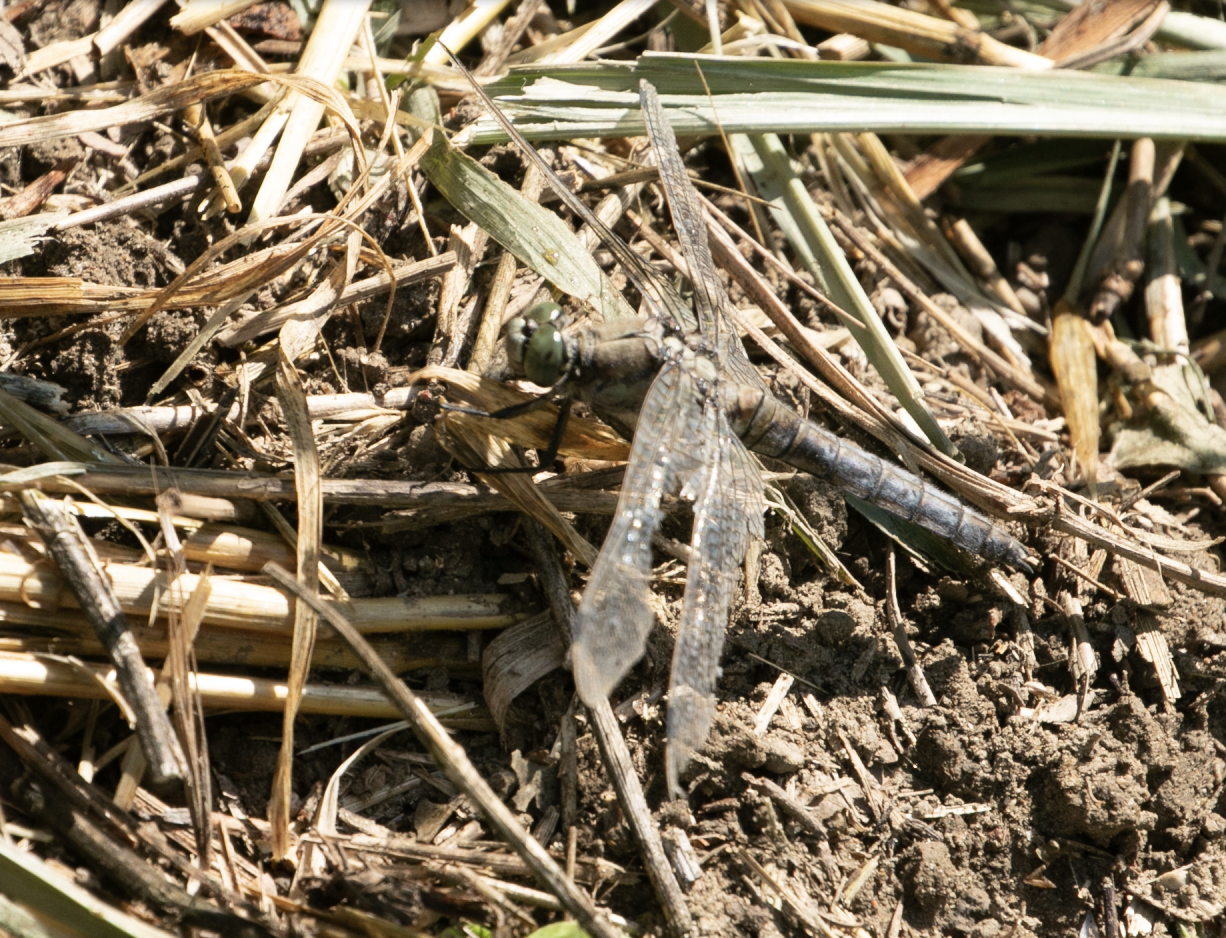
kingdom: Animalia
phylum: Arthropoda
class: Insecta
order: Odonata
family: Libellulidae
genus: Orthetrum
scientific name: Orthetrum cancellatum
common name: Black-tailed skimmer
